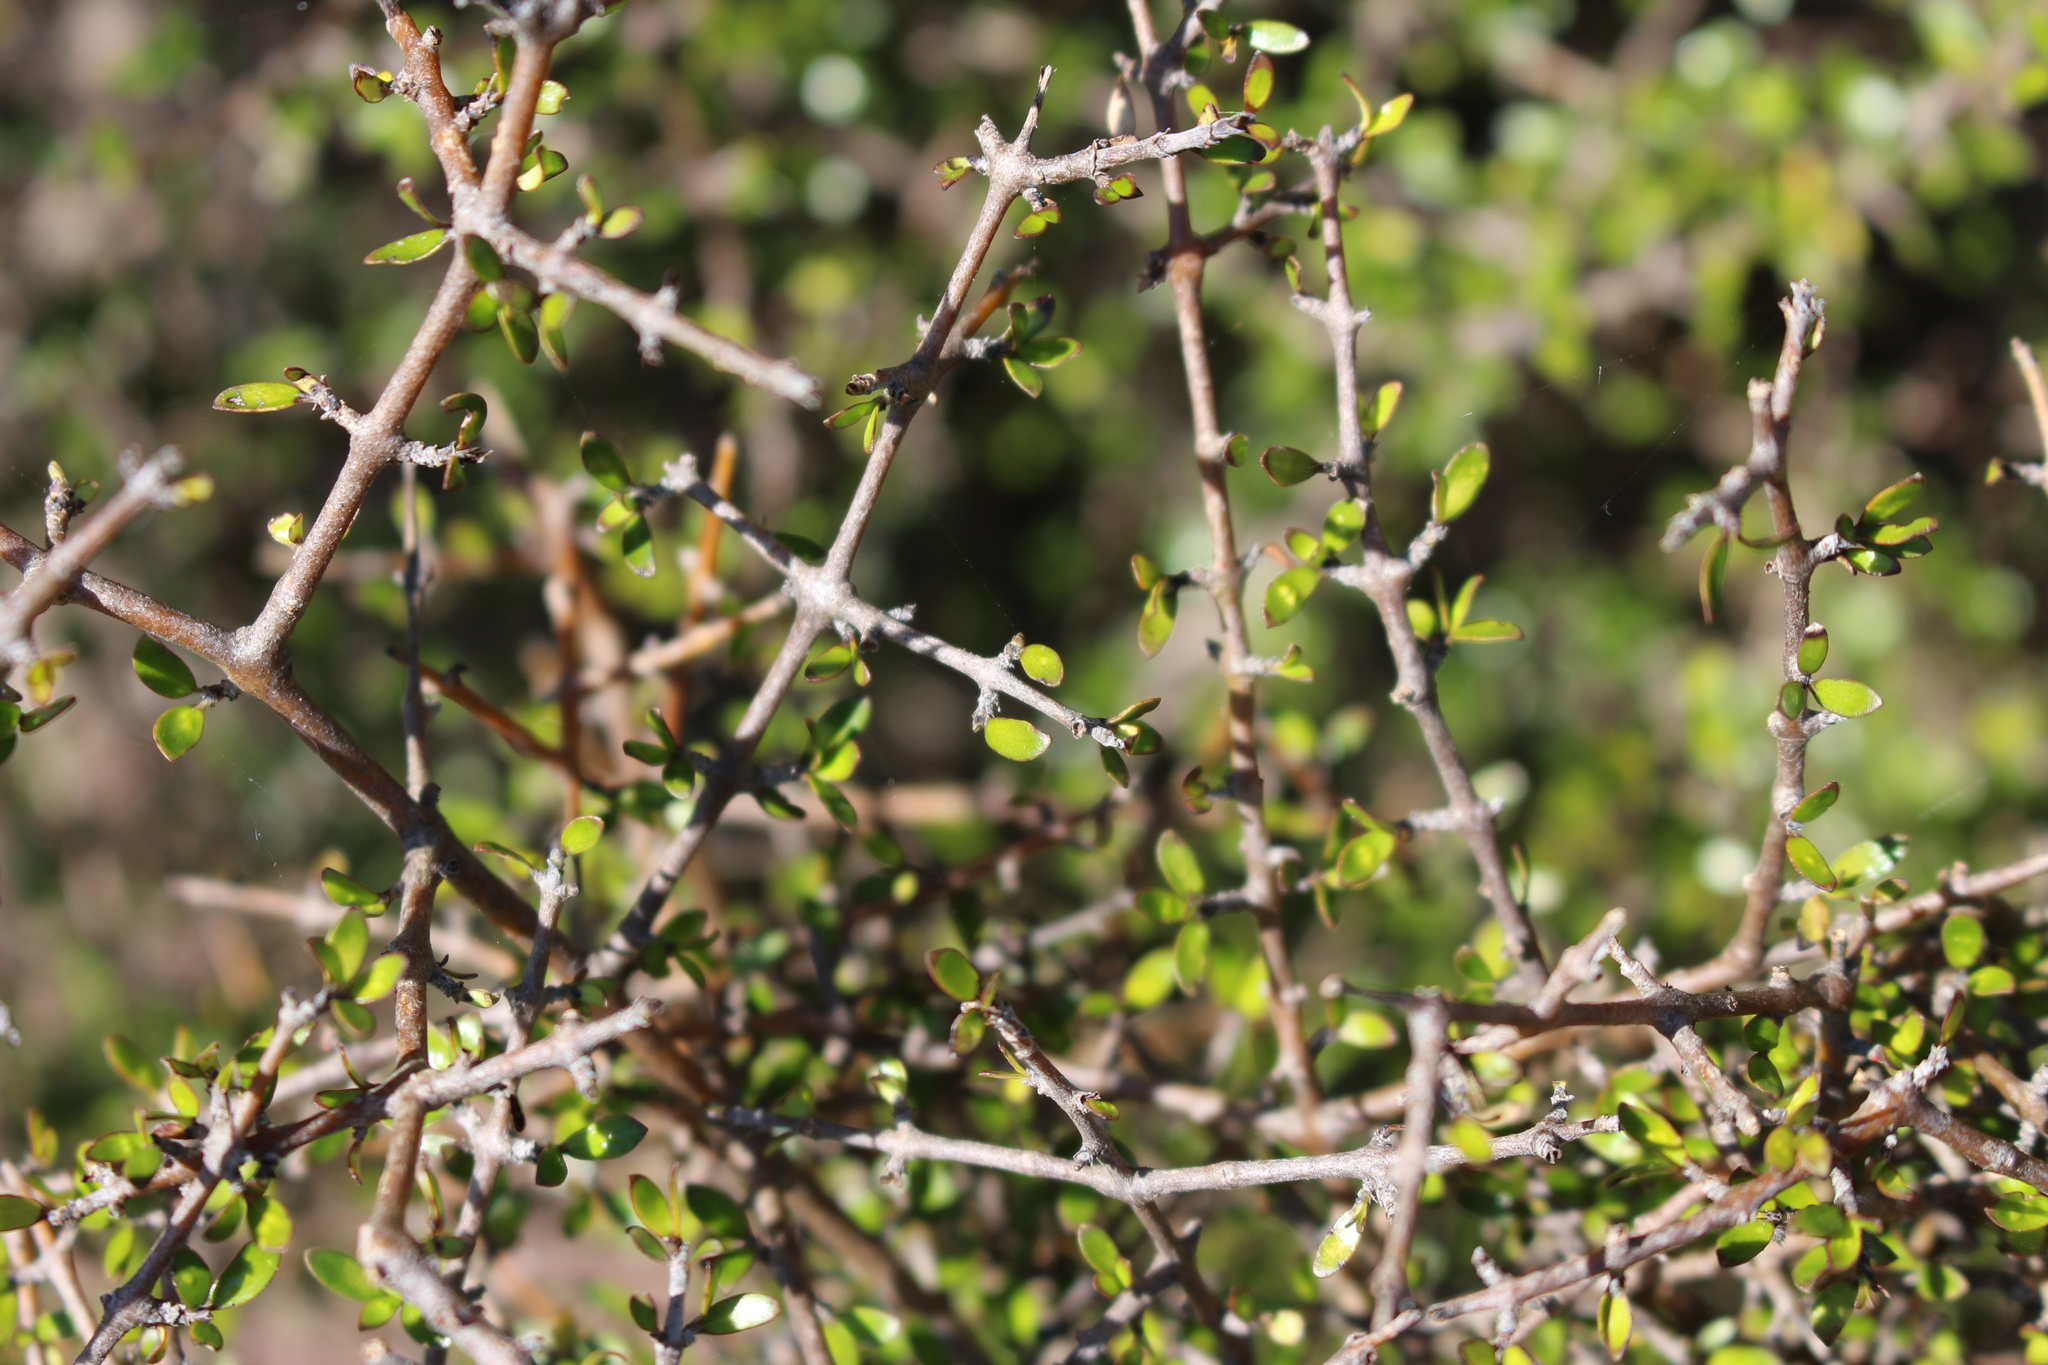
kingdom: Plantae
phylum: Tracheophyta
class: Magnoliopsida
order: Gentianales
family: Rubiaceae
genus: Coprosma
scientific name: Coprosma propinqua
